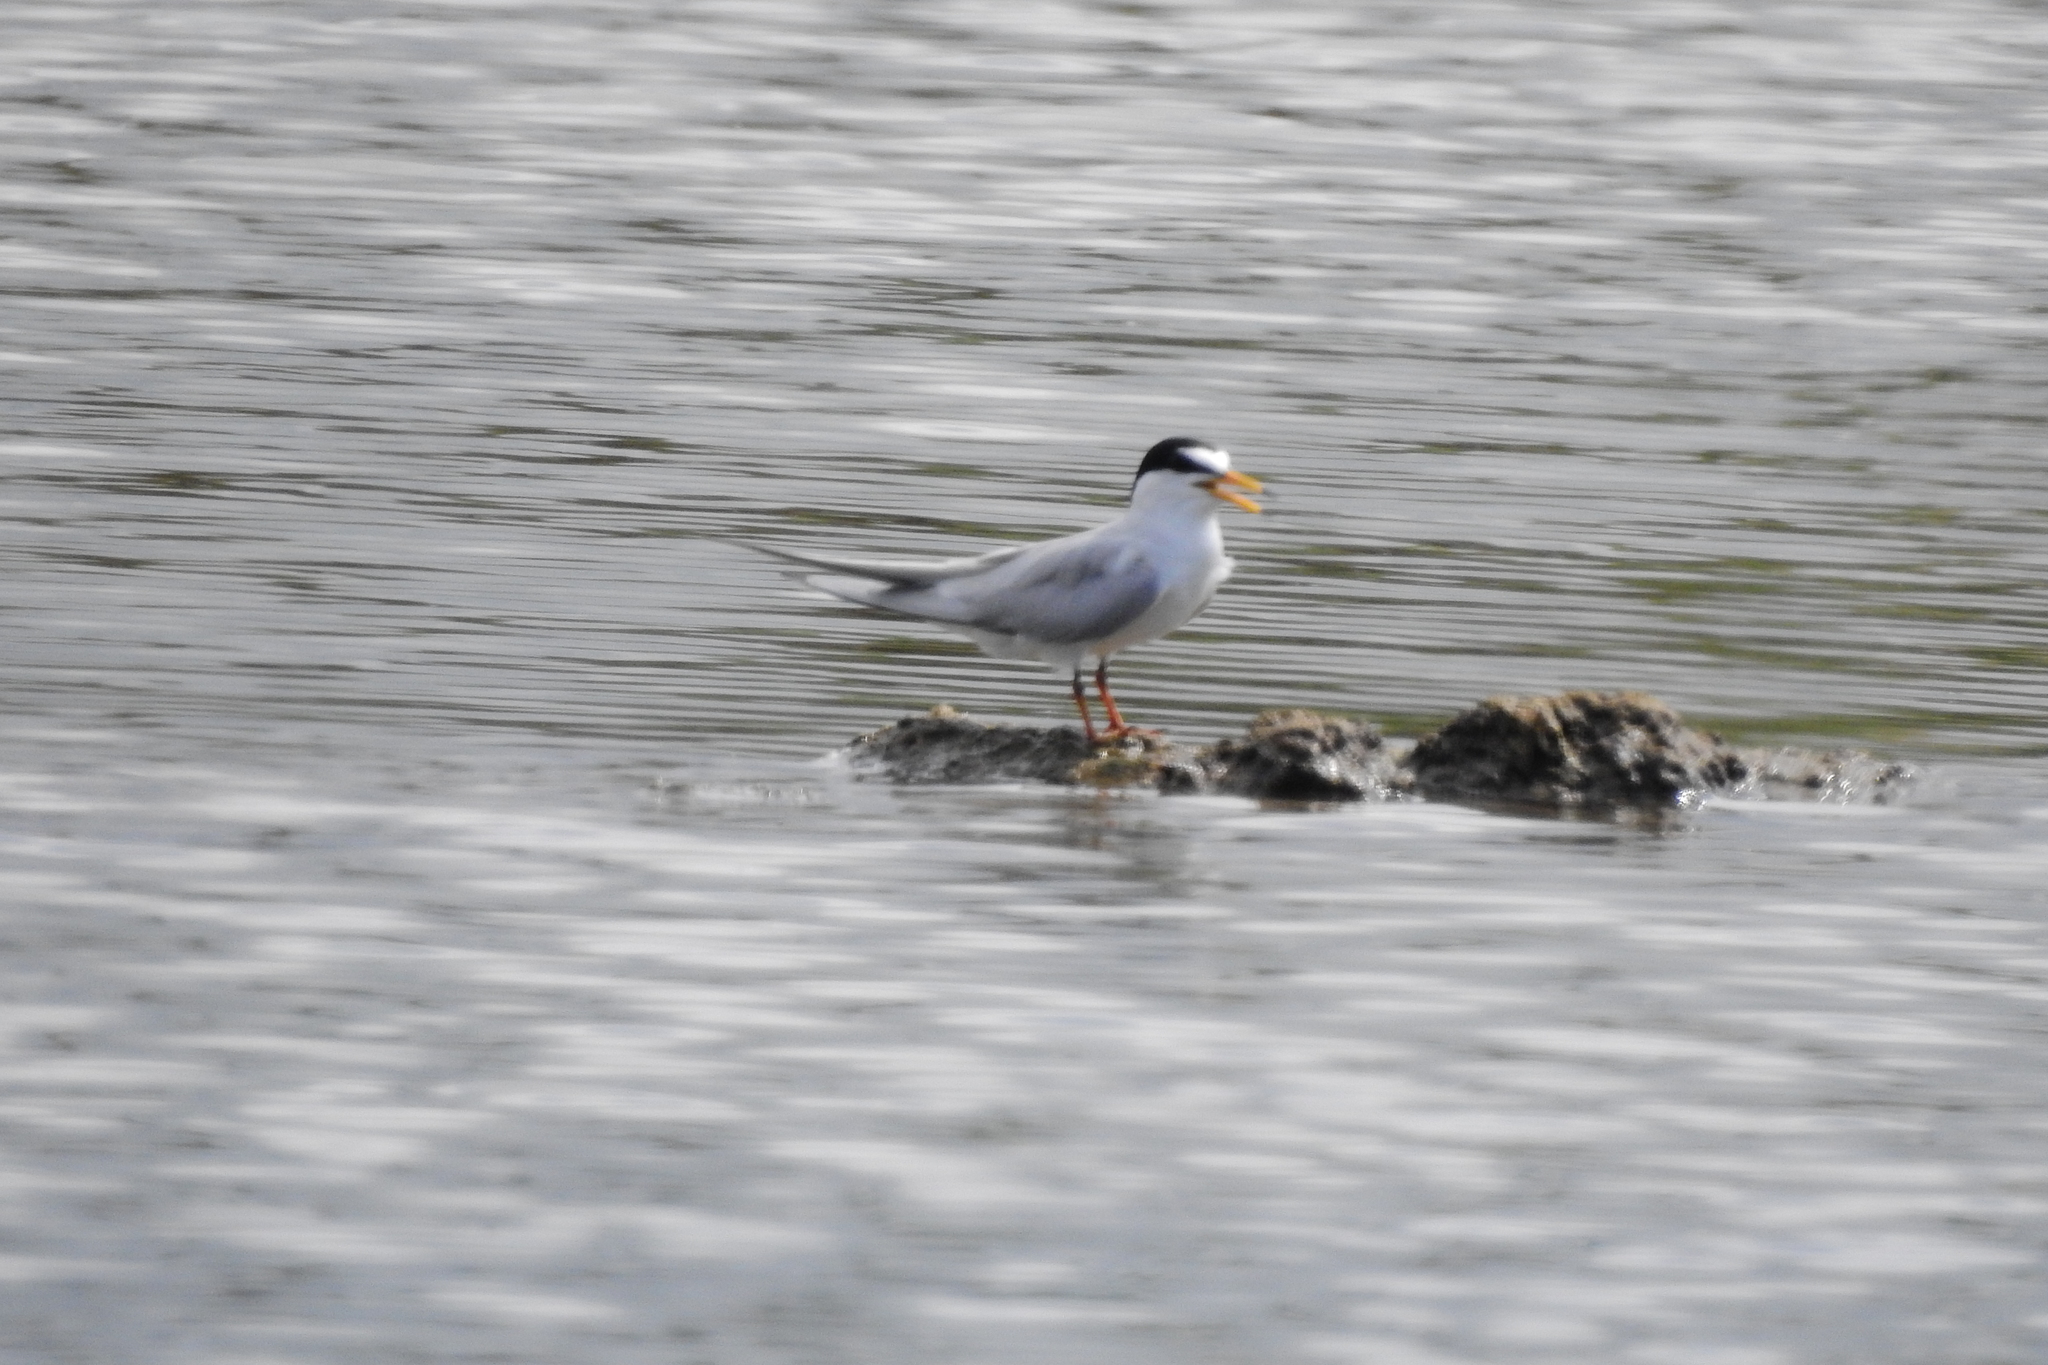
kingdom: Animalia
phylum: Chordata
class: Aves
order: Charadriiformes
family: Laridae
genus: Sternula
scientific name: Sternula albifrons
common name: Little tern
